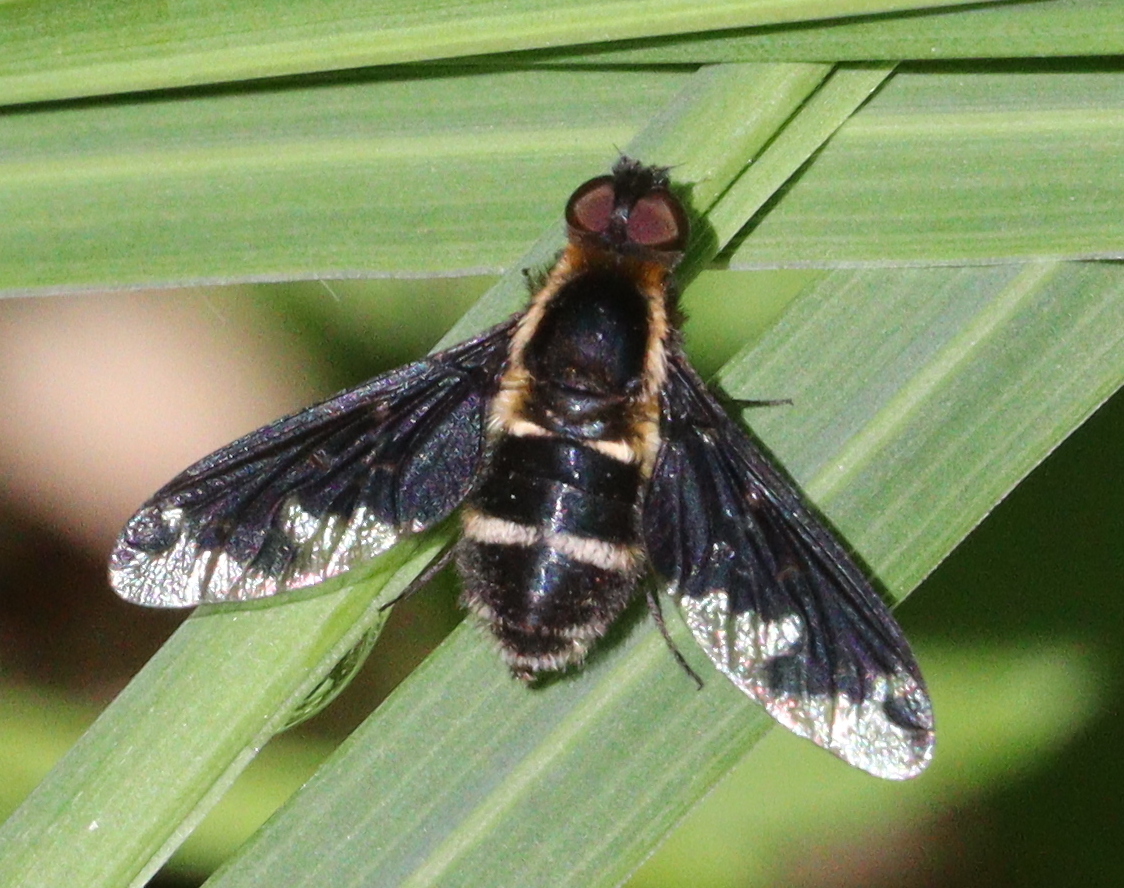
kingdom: Animalia
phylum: Arthropoda
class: Insecta
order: Diptera
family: Bombyliidae
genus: Hemipenthes
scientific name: Hemipenthes maura
